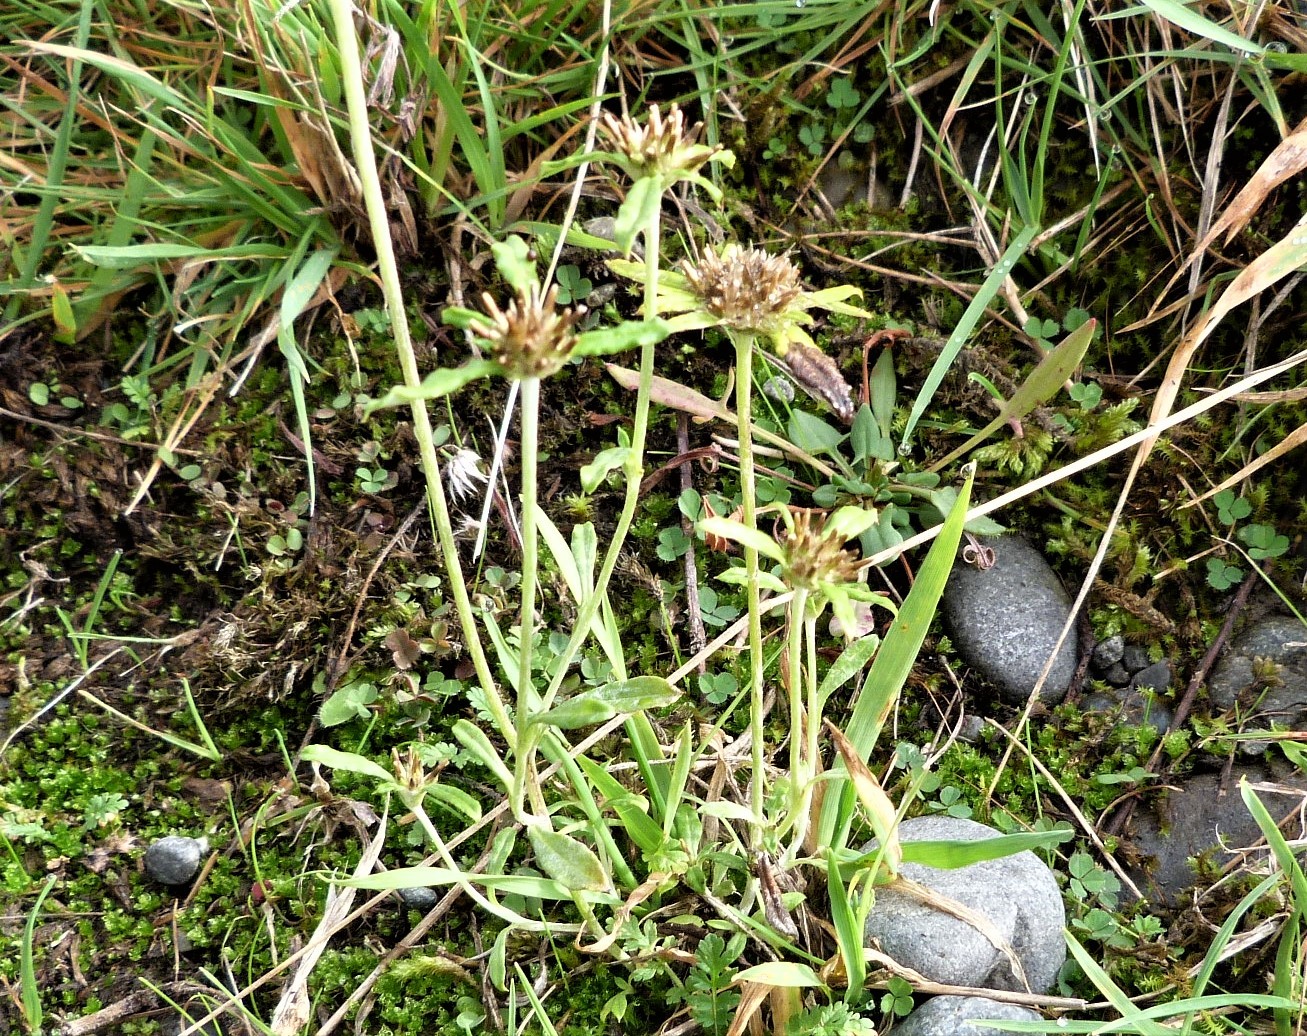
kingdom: Plantae
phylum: Tracheophyta
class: Magnoliopsida
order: Asterales
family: Asteraceae
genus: Euchiton
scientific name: Euchiton sphaericus
